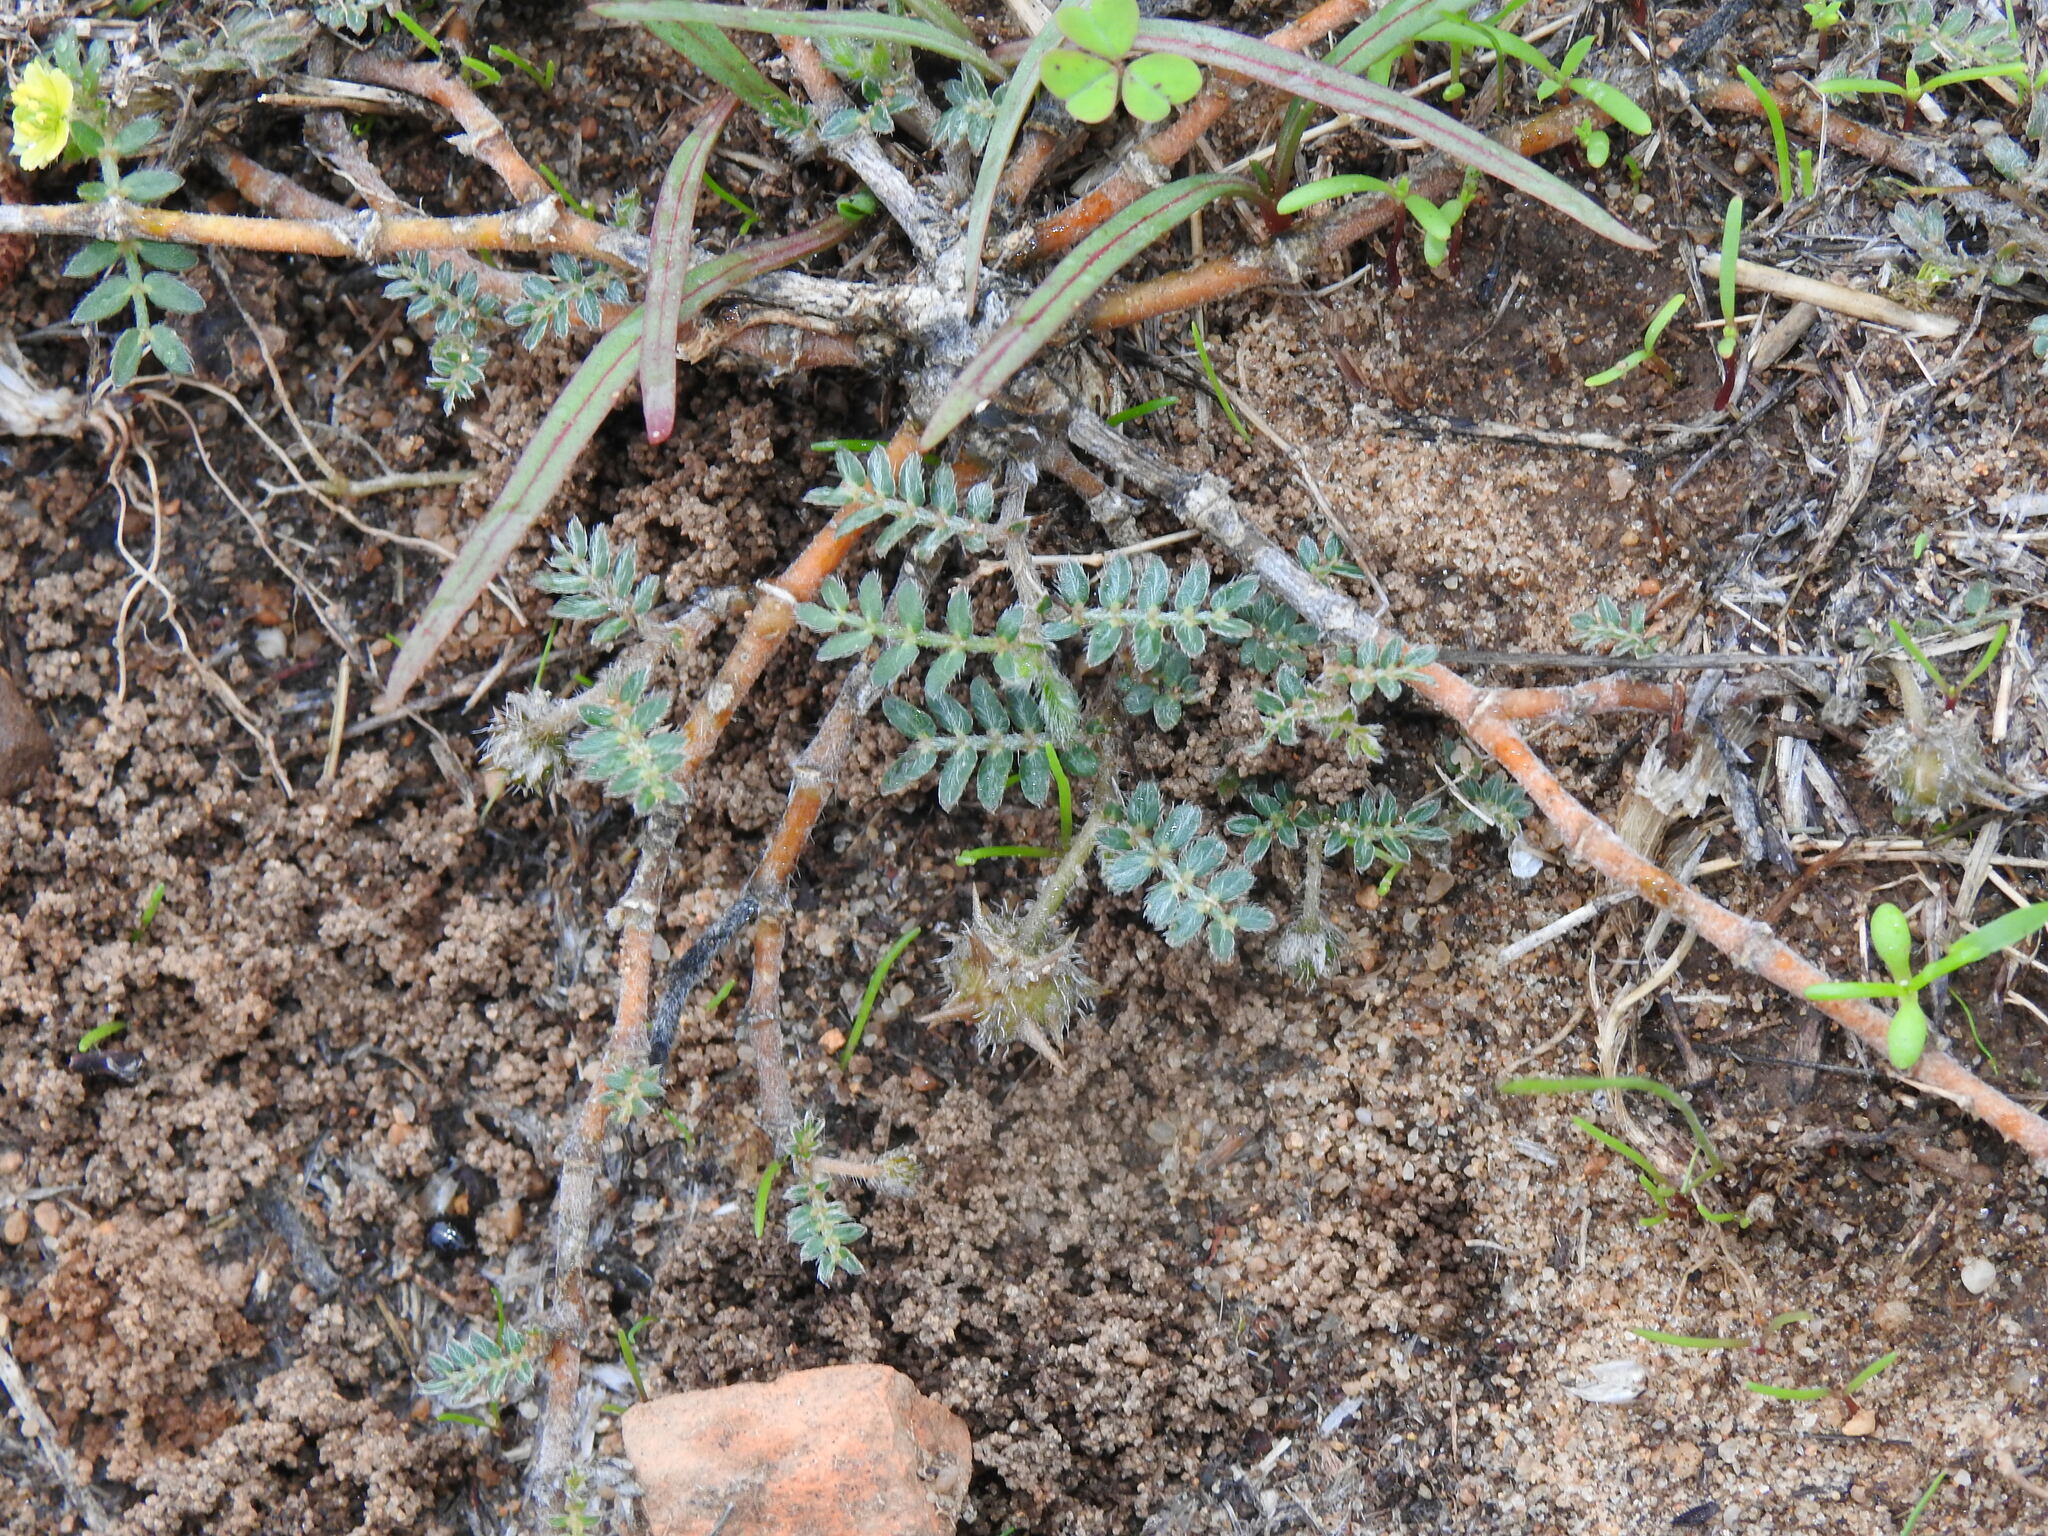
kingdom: Plantae
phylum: Tracheophyta
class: Magnoliopsida
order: Zygophyllales
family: Zygophyllaceae
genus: Tribulus
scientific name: Tribulus terrestris
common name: Puncturevine
